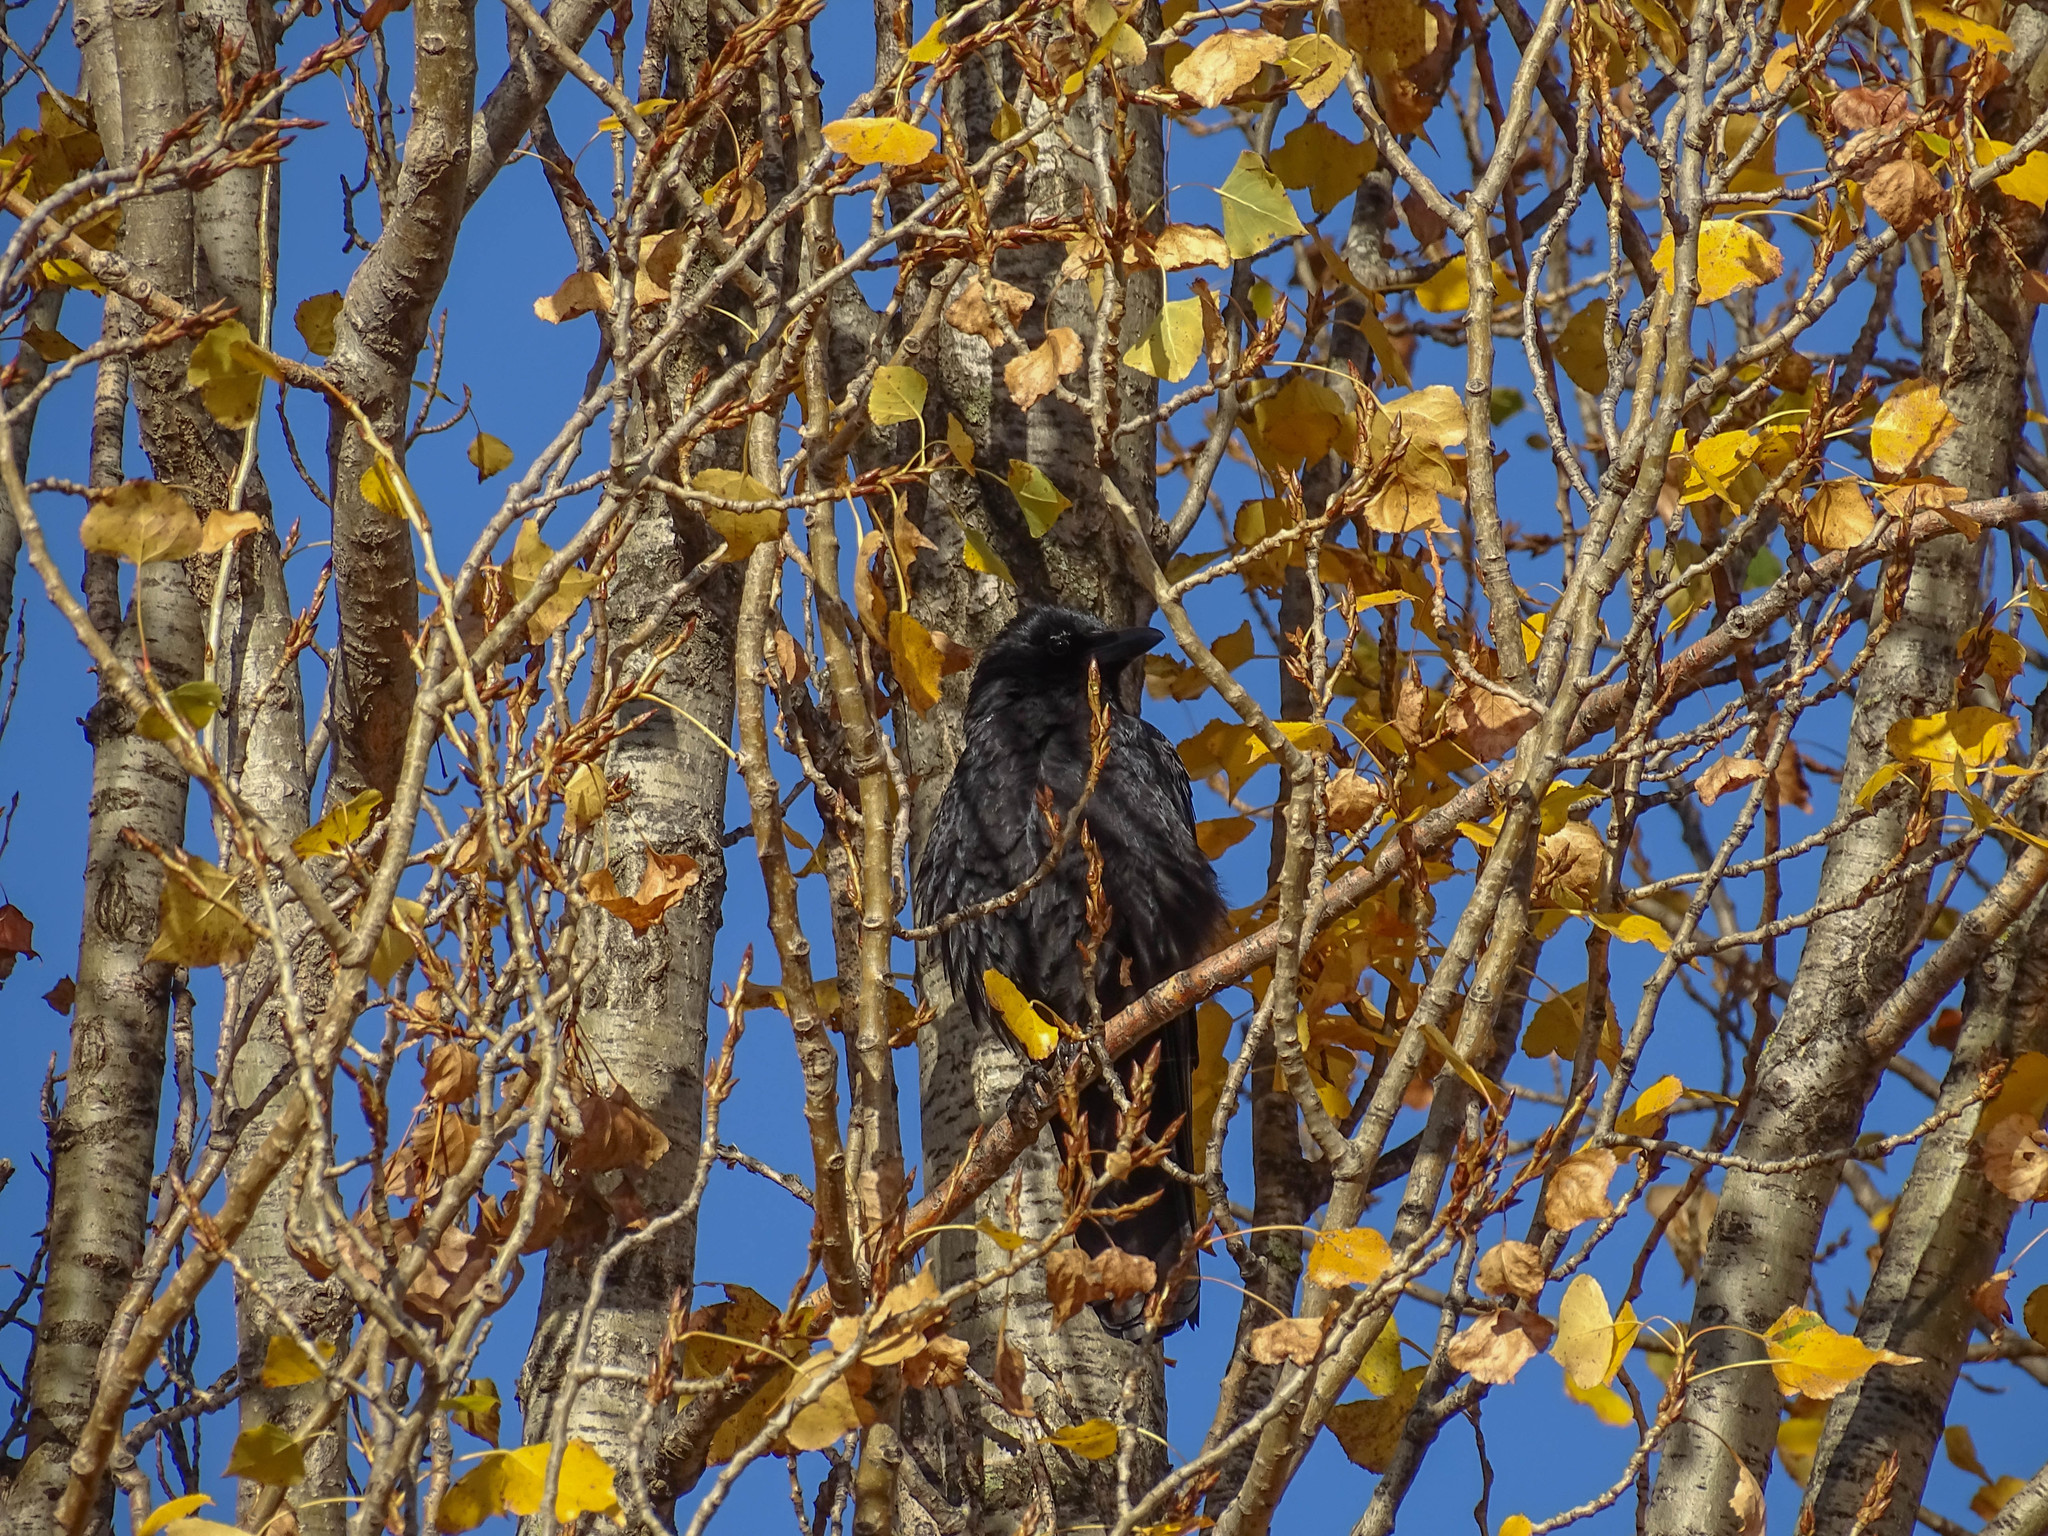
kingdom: Animalia
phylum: Chordata
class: Aves
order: Passeriformes
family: Corvidae
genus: Corvus
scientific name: Corvus corone
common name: Carrion crow
